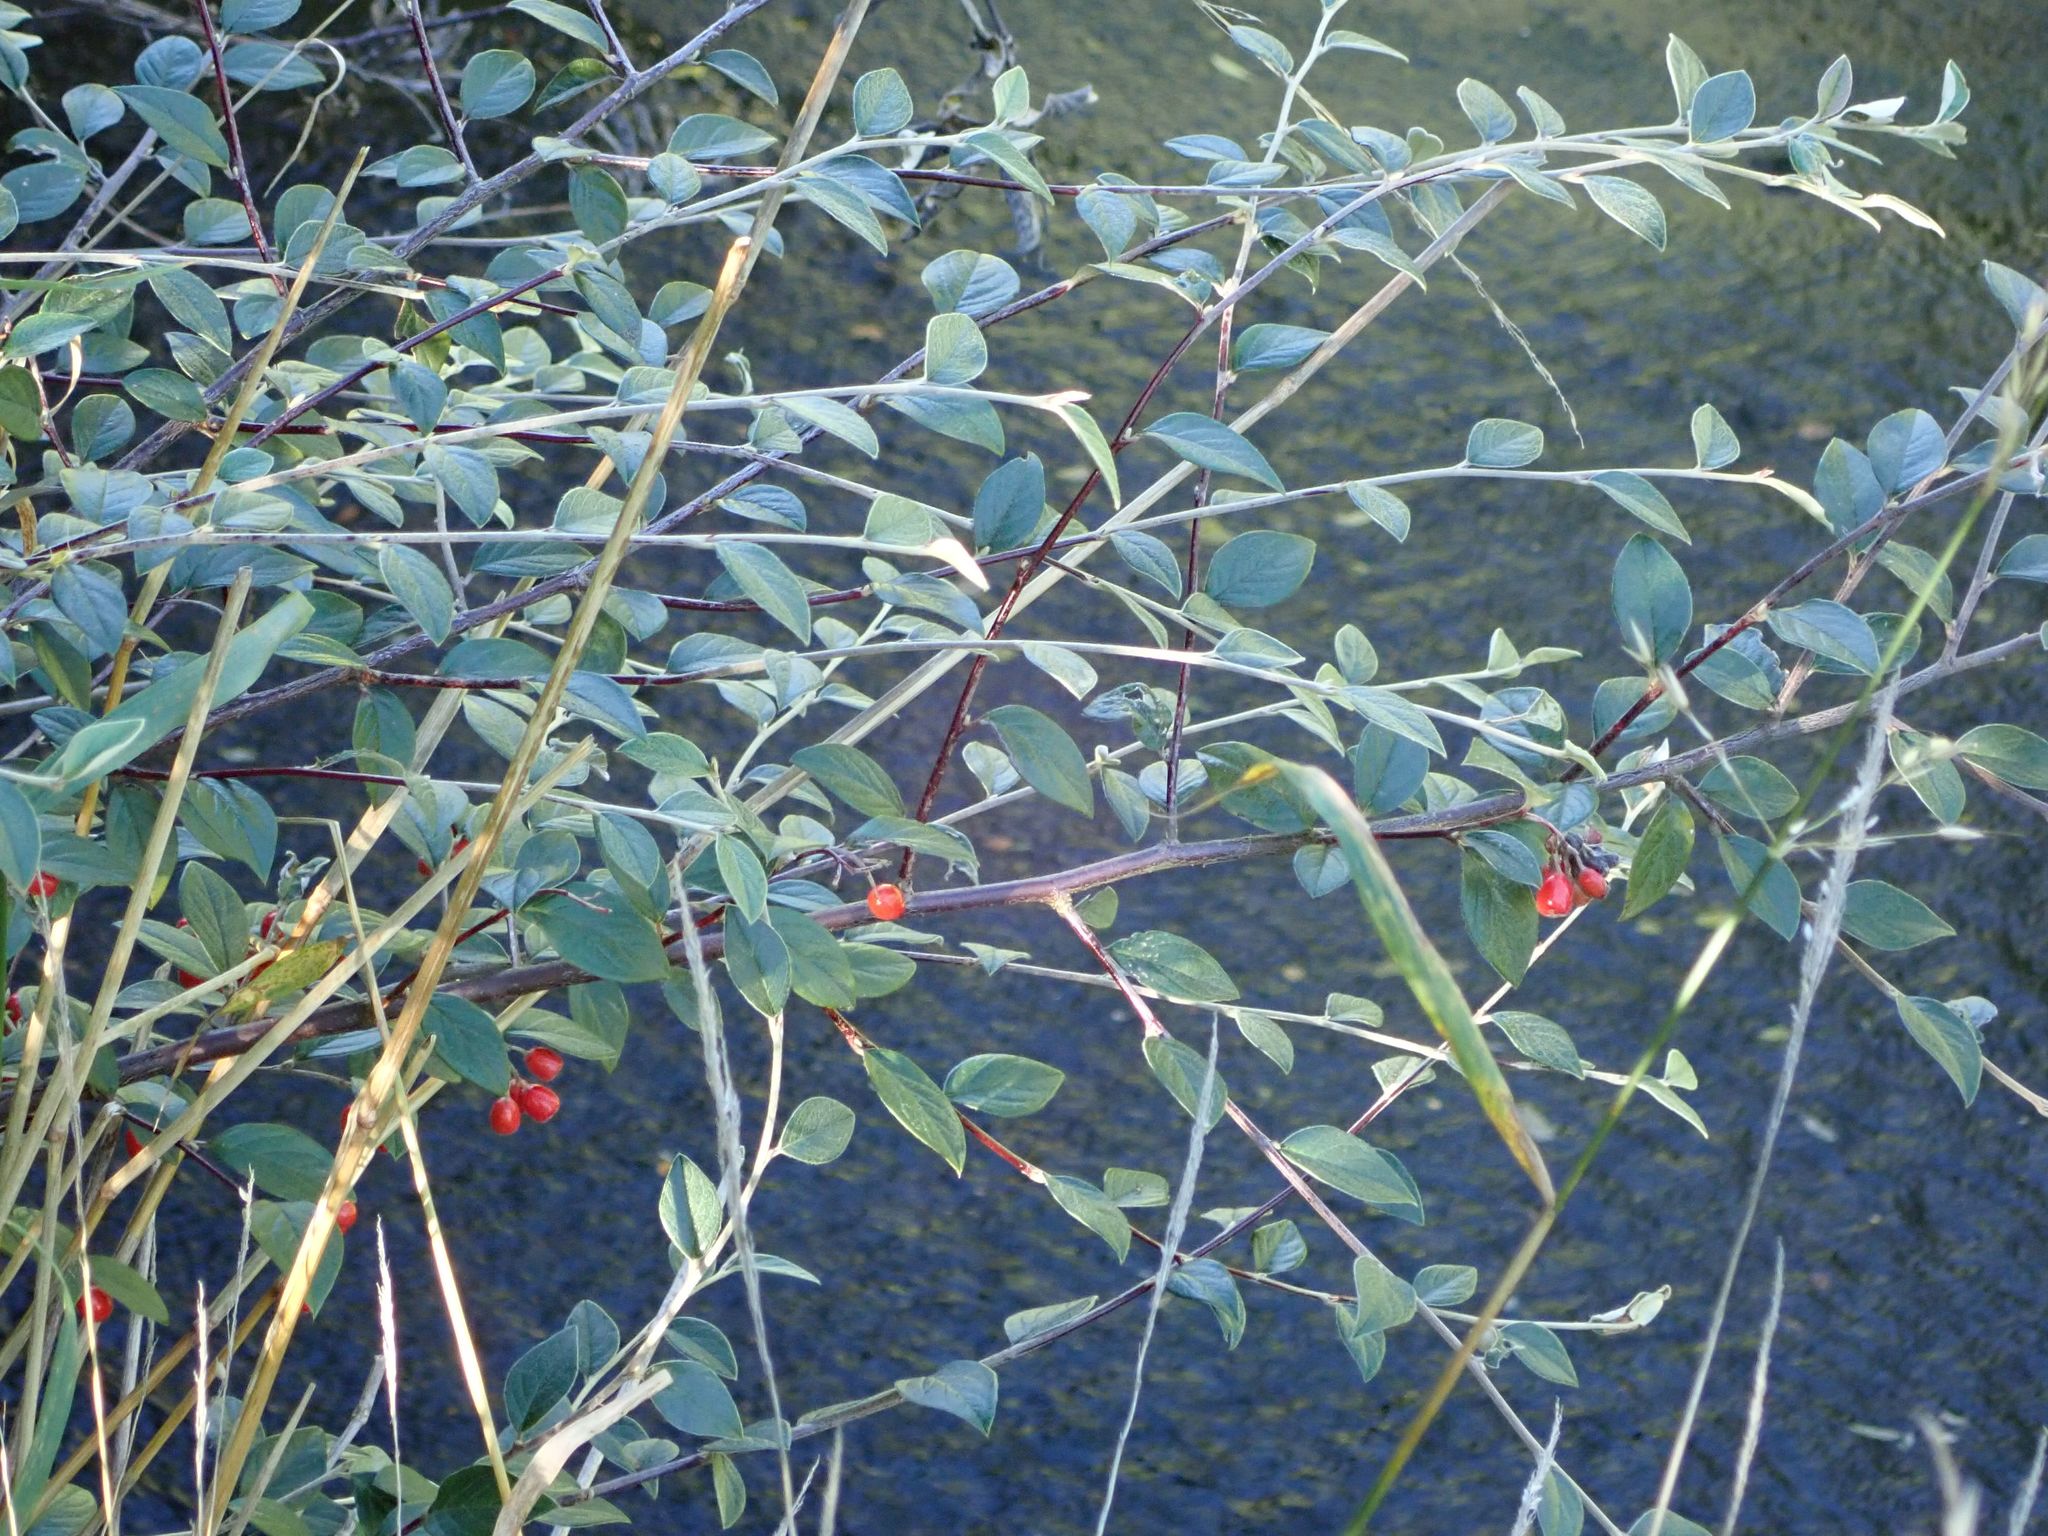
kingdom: Plantae
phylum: Tracheophyta
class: Magnoliopsida
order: Rosales
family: Rosaceae
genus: Cotoneaster
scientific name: Cotoneaster franchetii
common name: Franchet's cotoneaster
